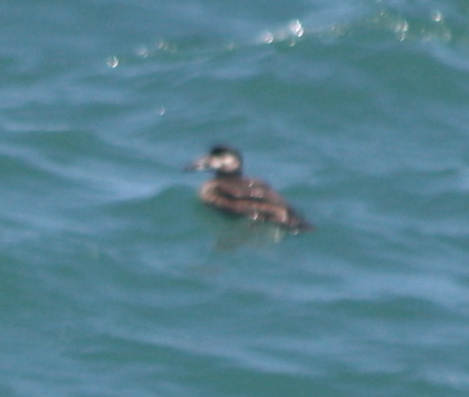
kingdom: Animalia
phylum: Chordata
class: Aves
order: Anseriformes
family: Anatidae
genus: Melanitta
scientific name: Melanitta perspicillata
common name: Surf scoter
